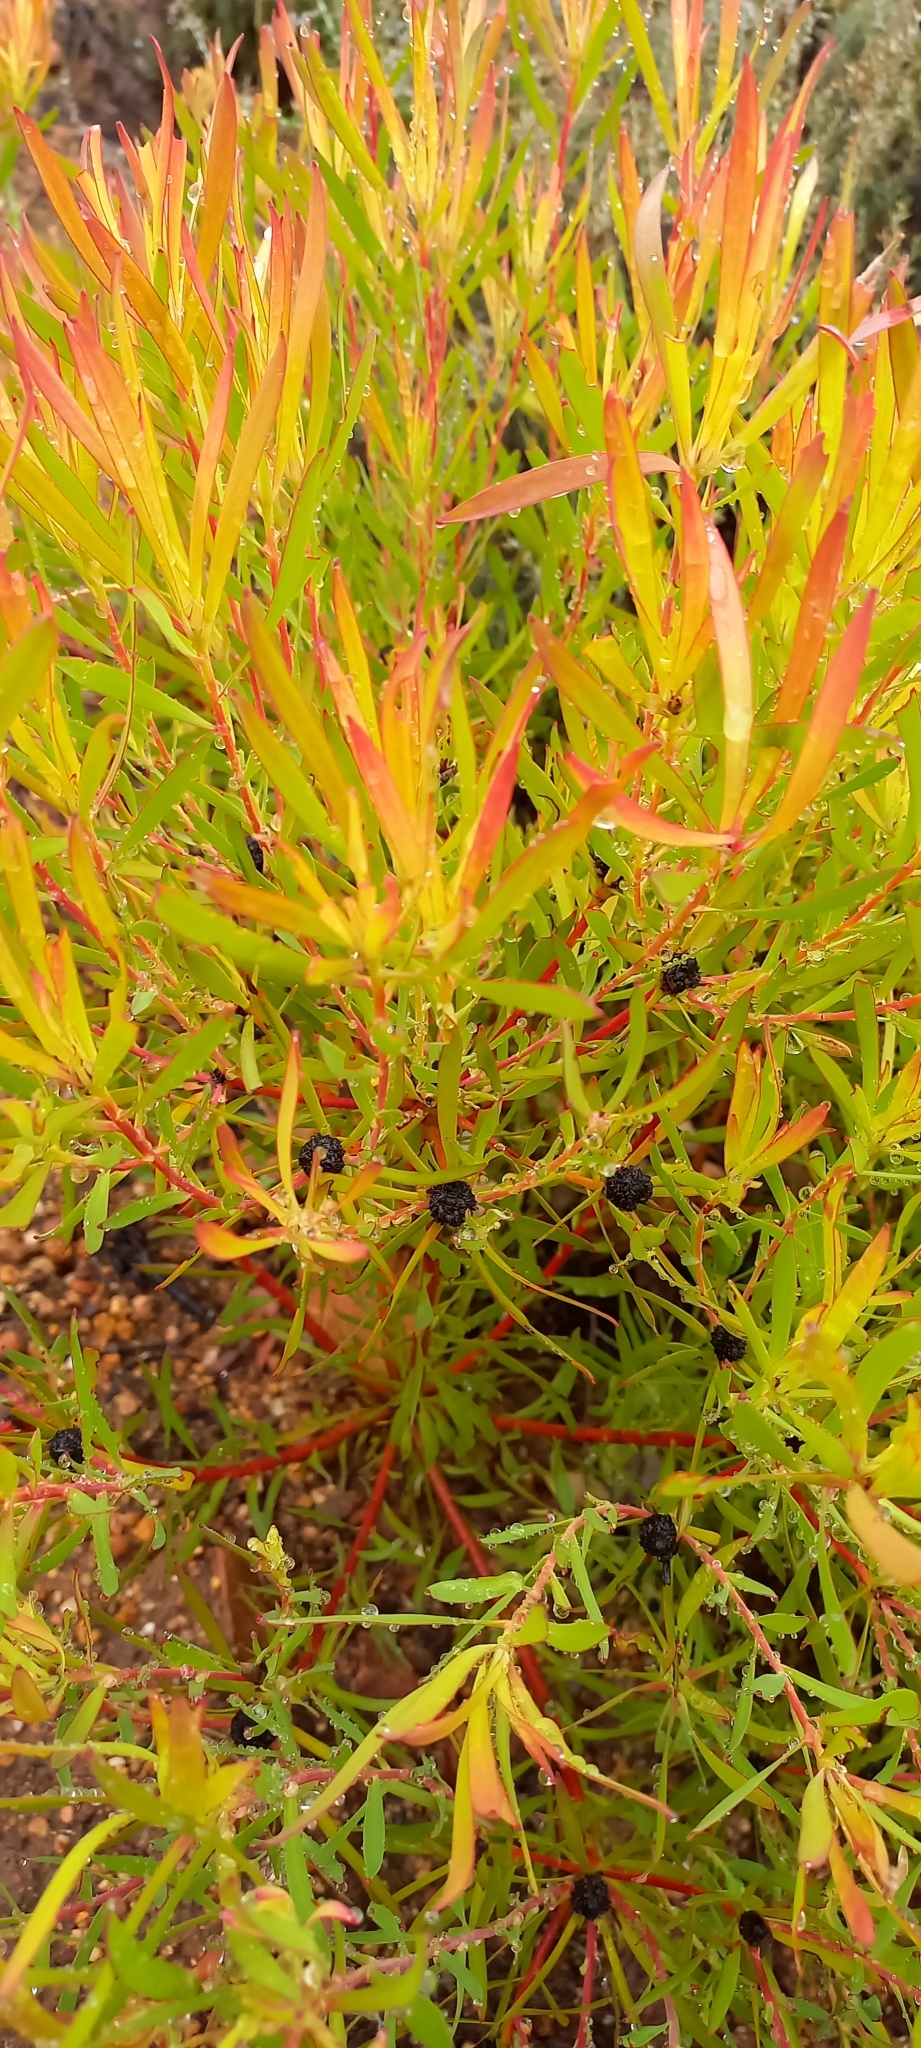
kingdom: Plantae
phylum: Tracheophyta
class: Magnoliopsida
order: Proteales
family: Proteaceae
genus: Leucadendron
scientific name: Leucadendron salignum
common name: Common sunshine conebush
